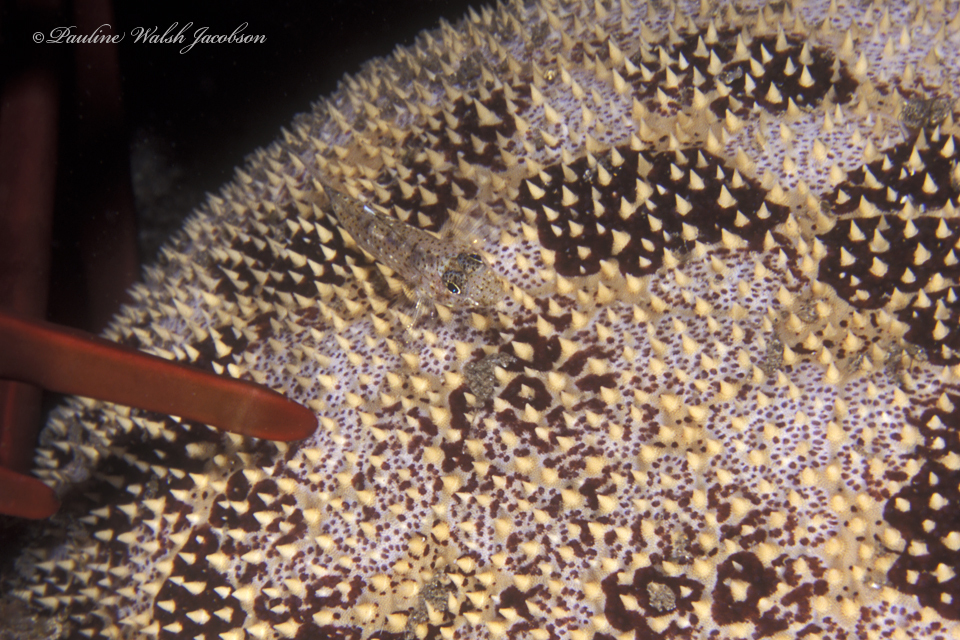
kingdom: Animalia
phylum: Chordata
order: Perciformes
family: Gobiidae
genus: Fusigobius
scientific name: Fusigobius duospilus
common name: Twospot goby
